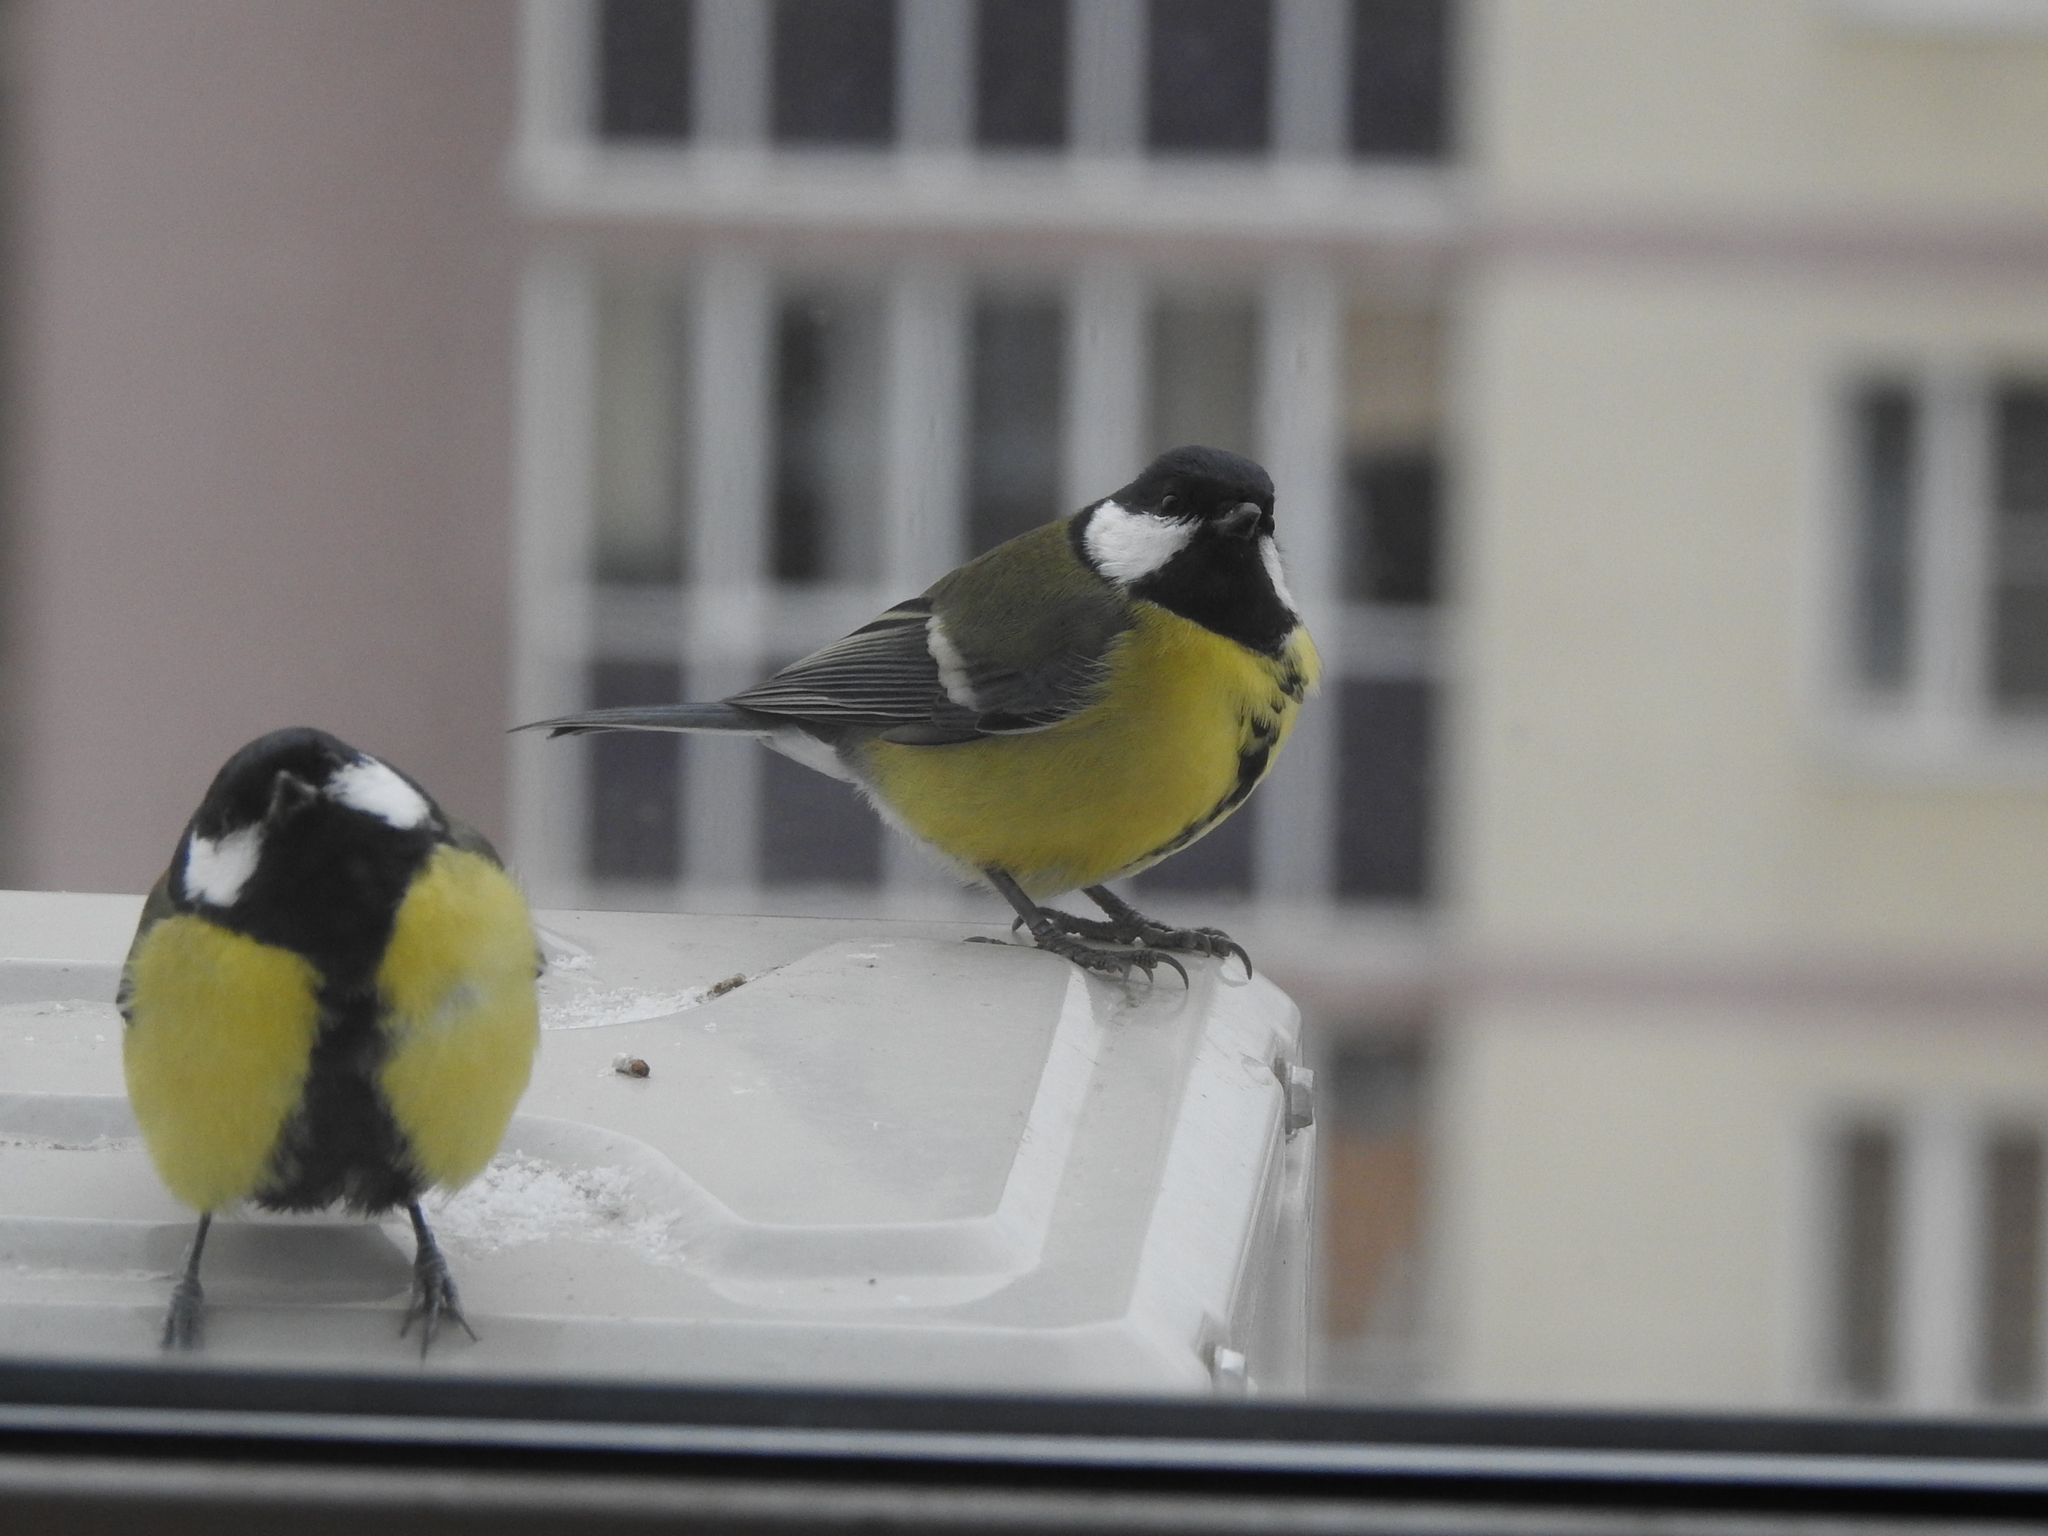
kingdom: Animalia
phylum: Chordata
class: Aves
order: Passeriformes
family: Paridae
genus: Parus
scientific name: Parus major
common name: Great tit
